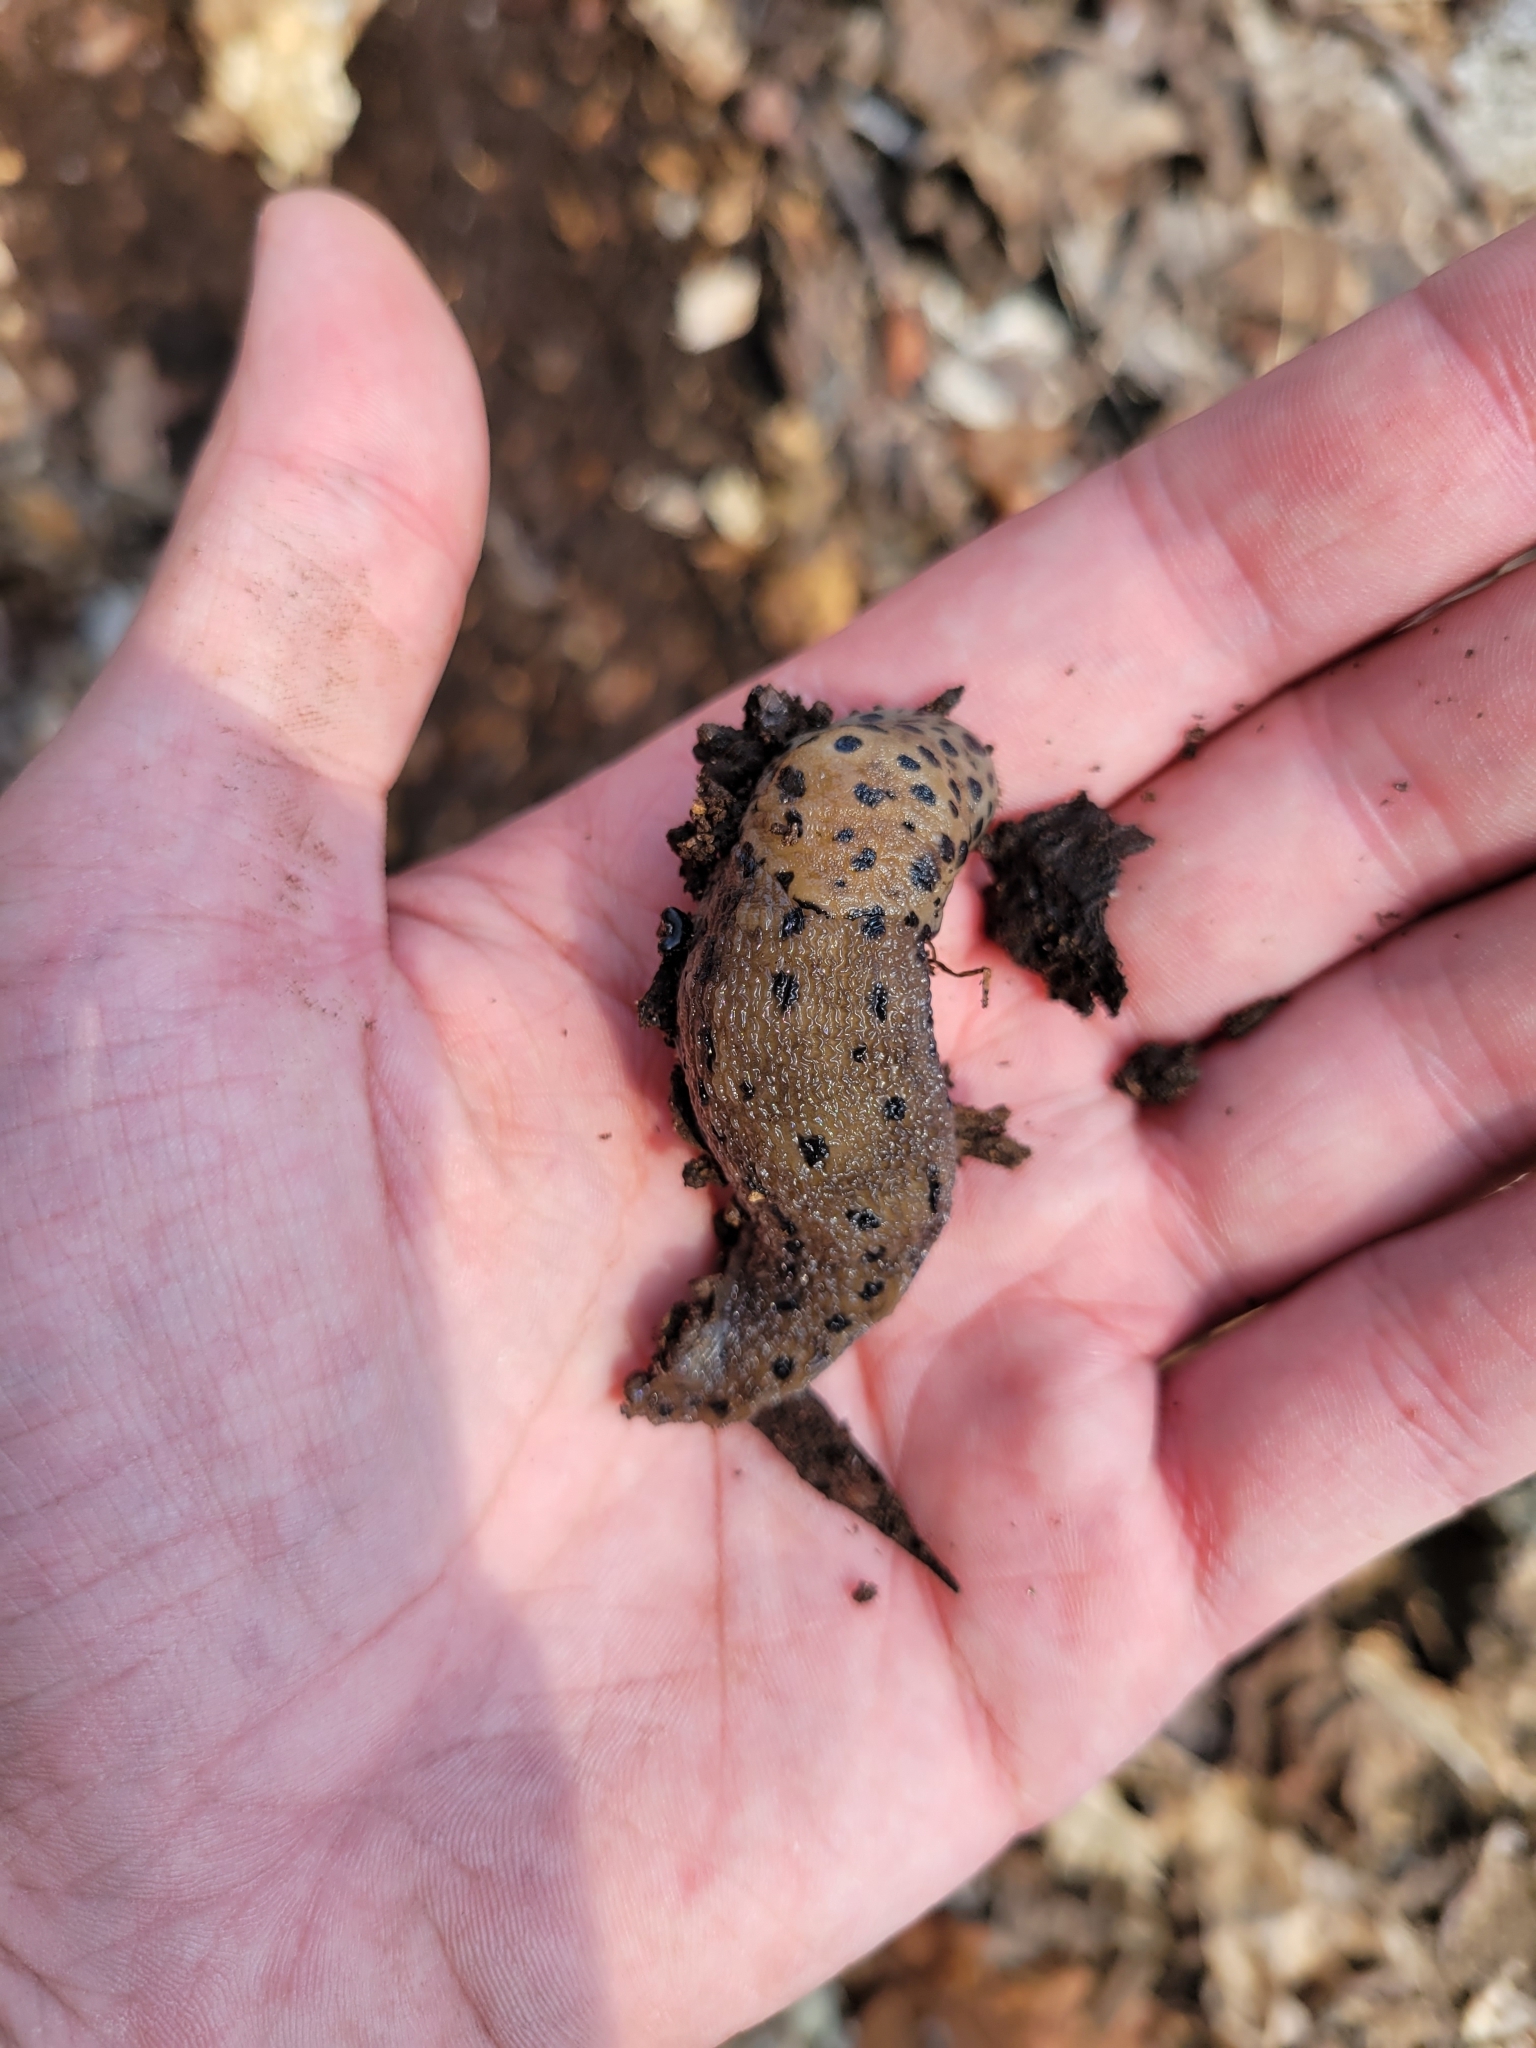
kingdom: Animalia
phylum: Mollusca
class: Gastropoda
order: Stylommatophora
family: Limacidae
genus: Limax
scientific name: Limax maximus
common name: Great grey slug
